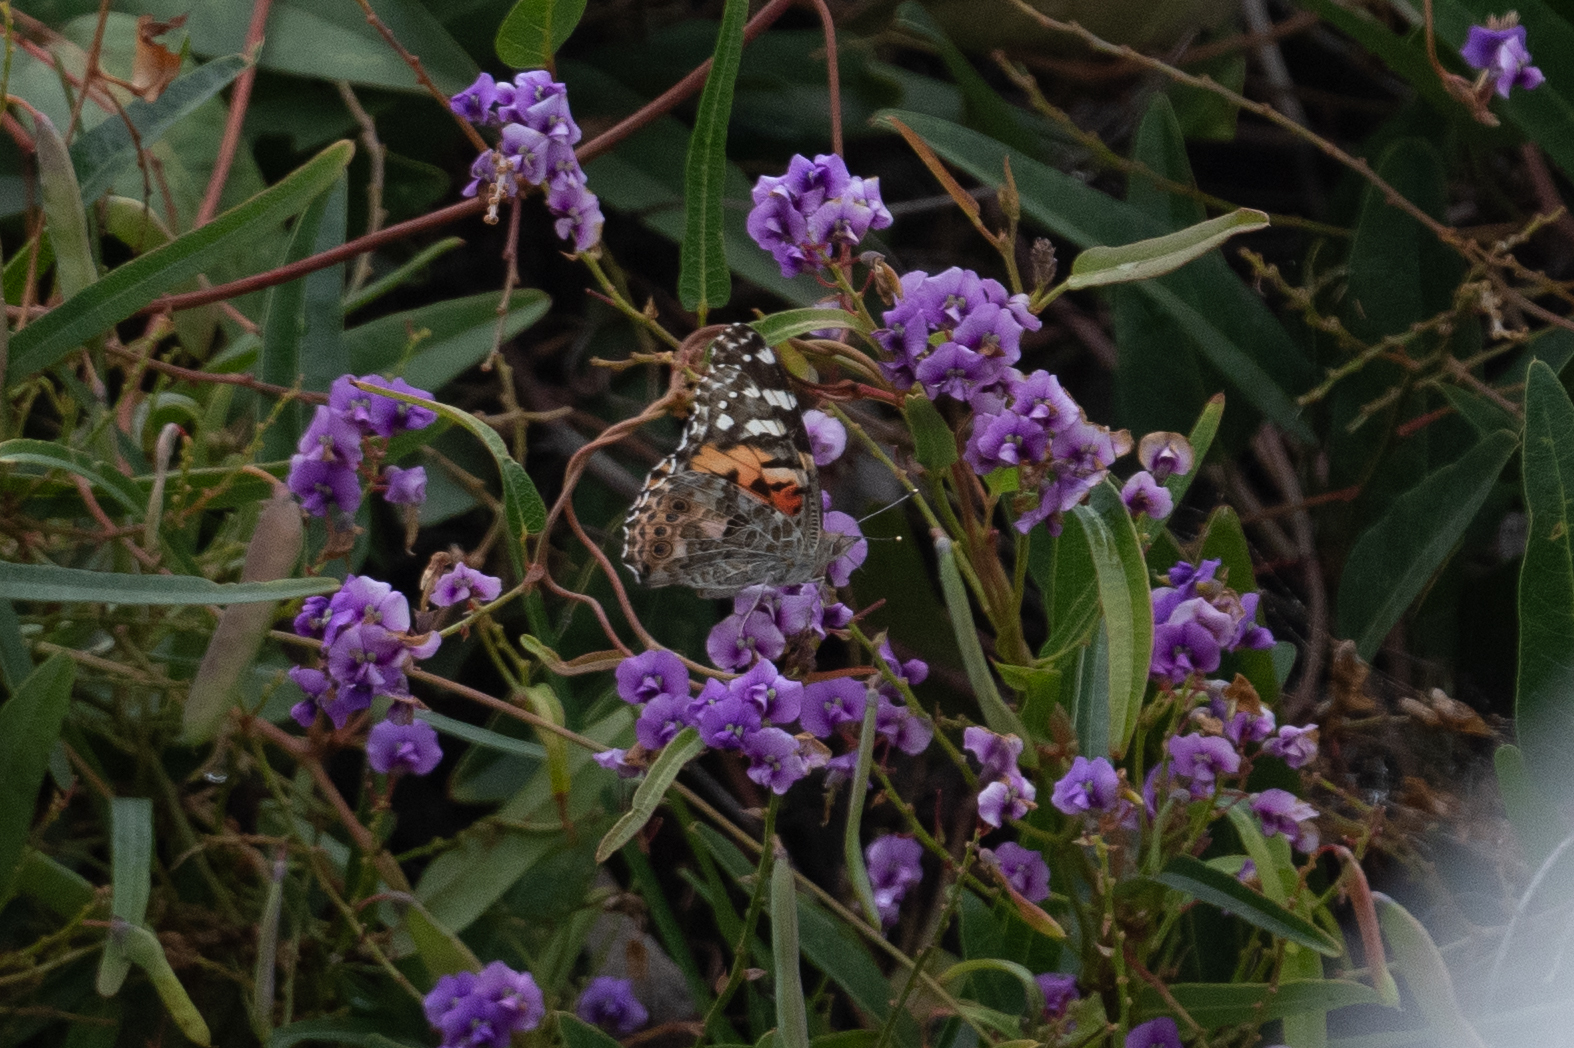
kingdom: Animalia
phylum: Arthropoda
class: Insecta
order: Lepidoptera
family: Nymphalidae
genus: Vanessa
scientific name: Vanessa cardui
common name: Painted lady
